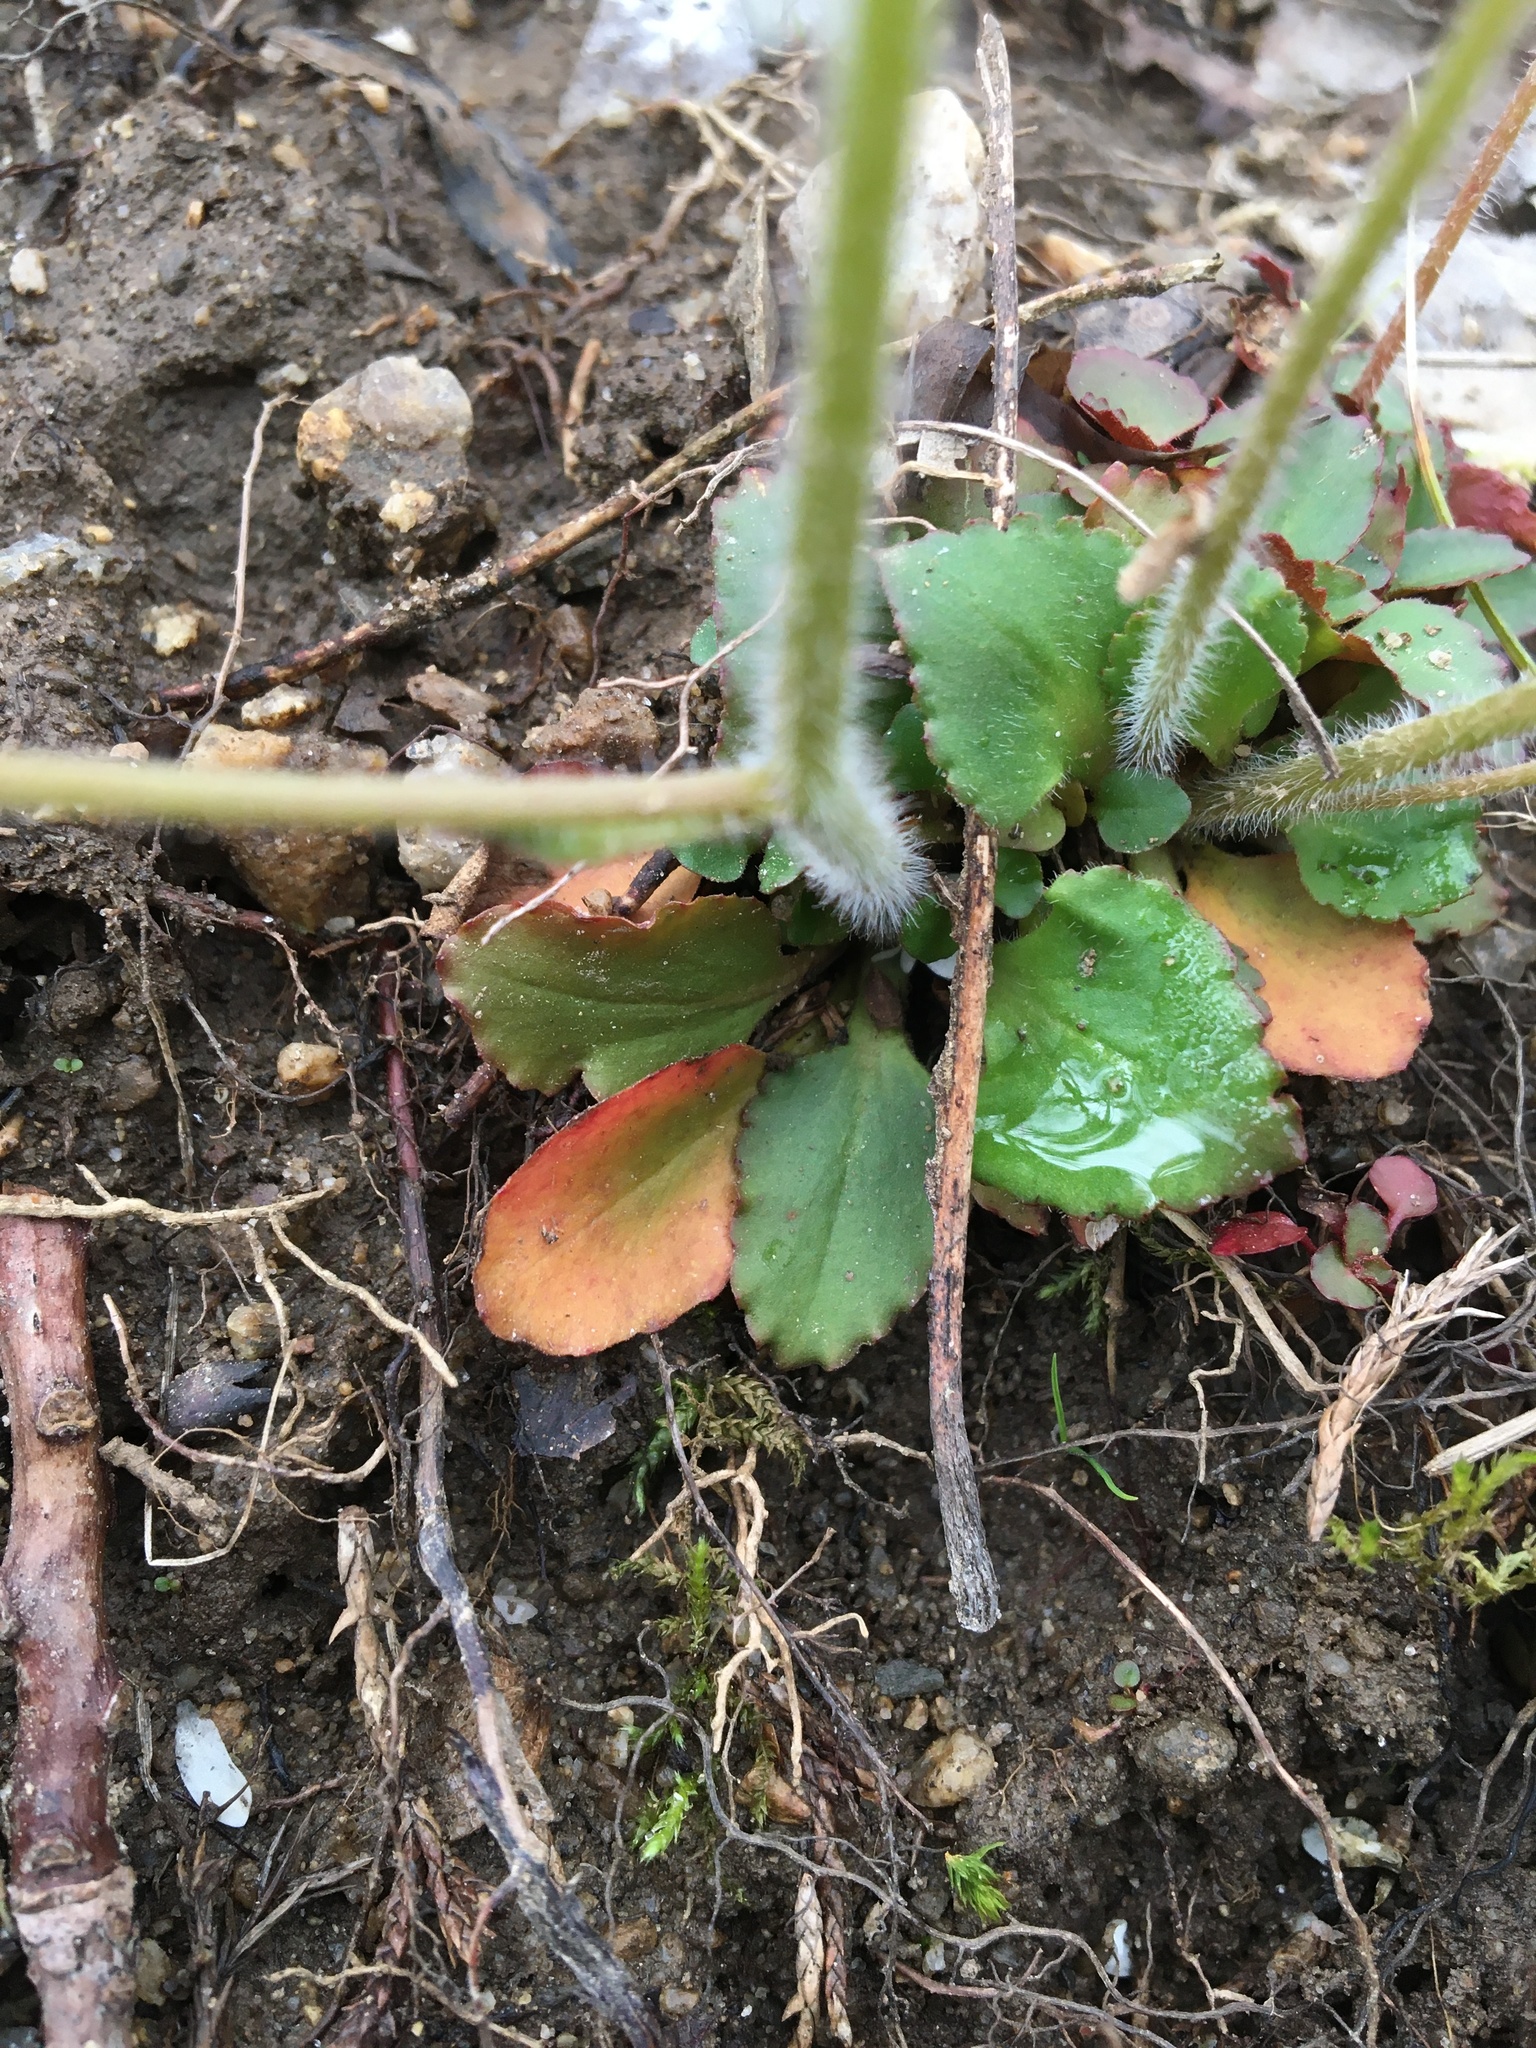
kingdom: Plantae
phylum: Tracheophyta
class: Magnoliopsida
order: Saxifragales
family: Saxifragaceae
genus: Micranthes
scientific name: Micranthes virginiensis
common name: Early saxifrage
